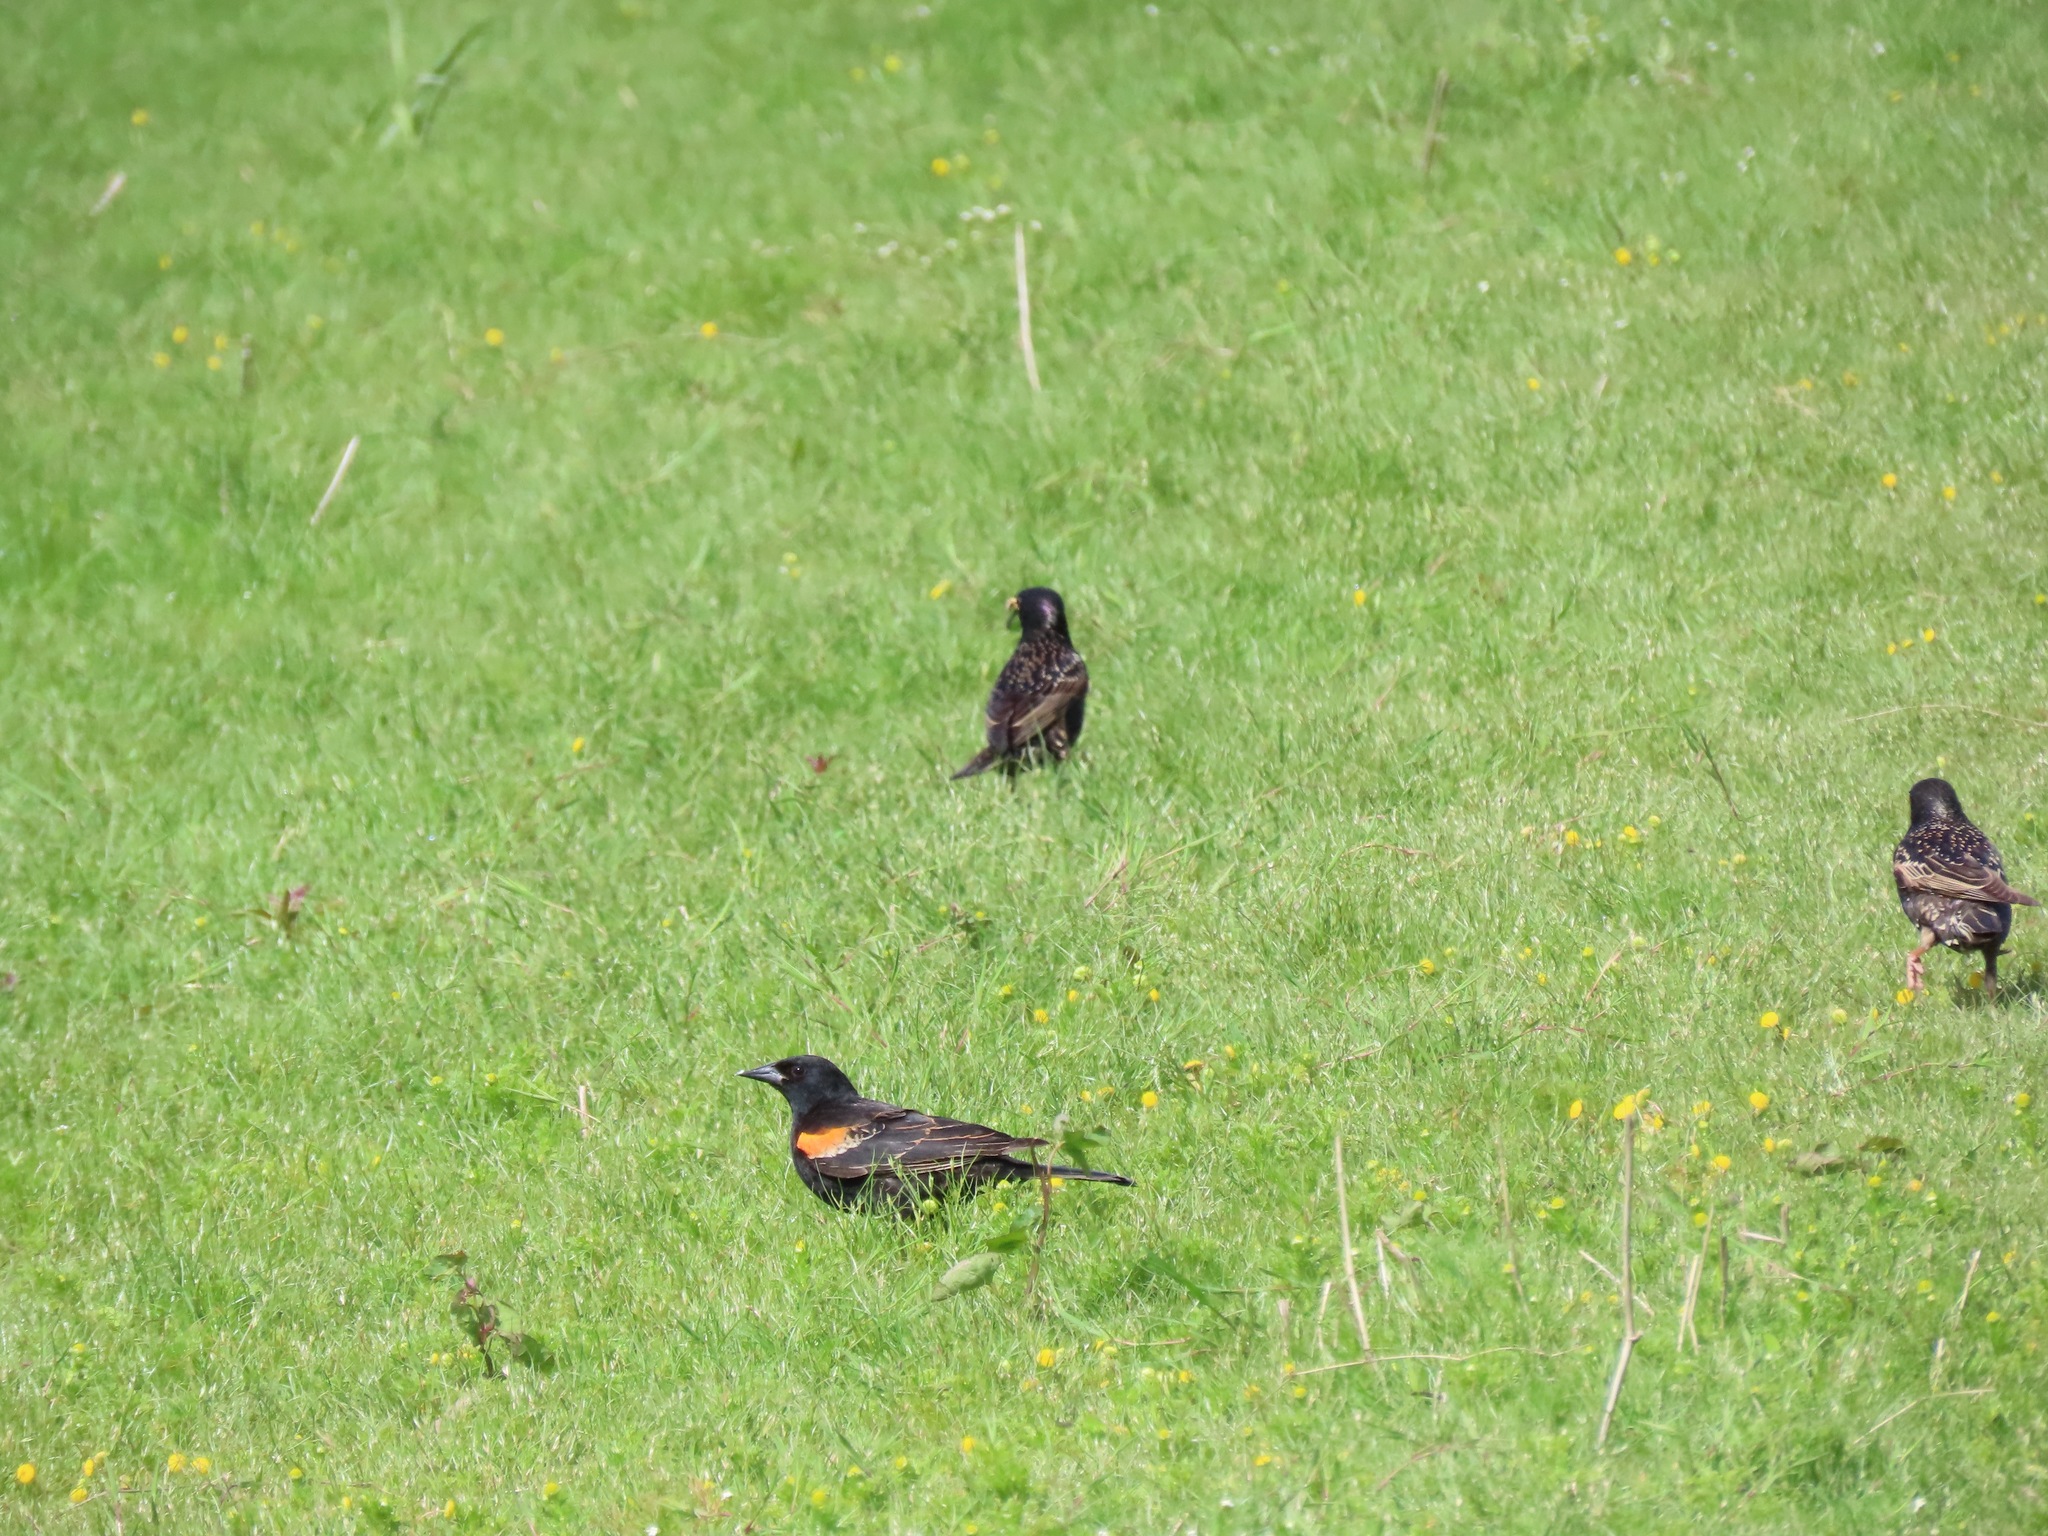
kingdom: Animalia
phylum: Chordata
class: Aves
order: Passeriformes
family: Icteridae
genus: Agelaius
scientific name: Agelaius phoeniceus
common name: Red-winged blackbird
